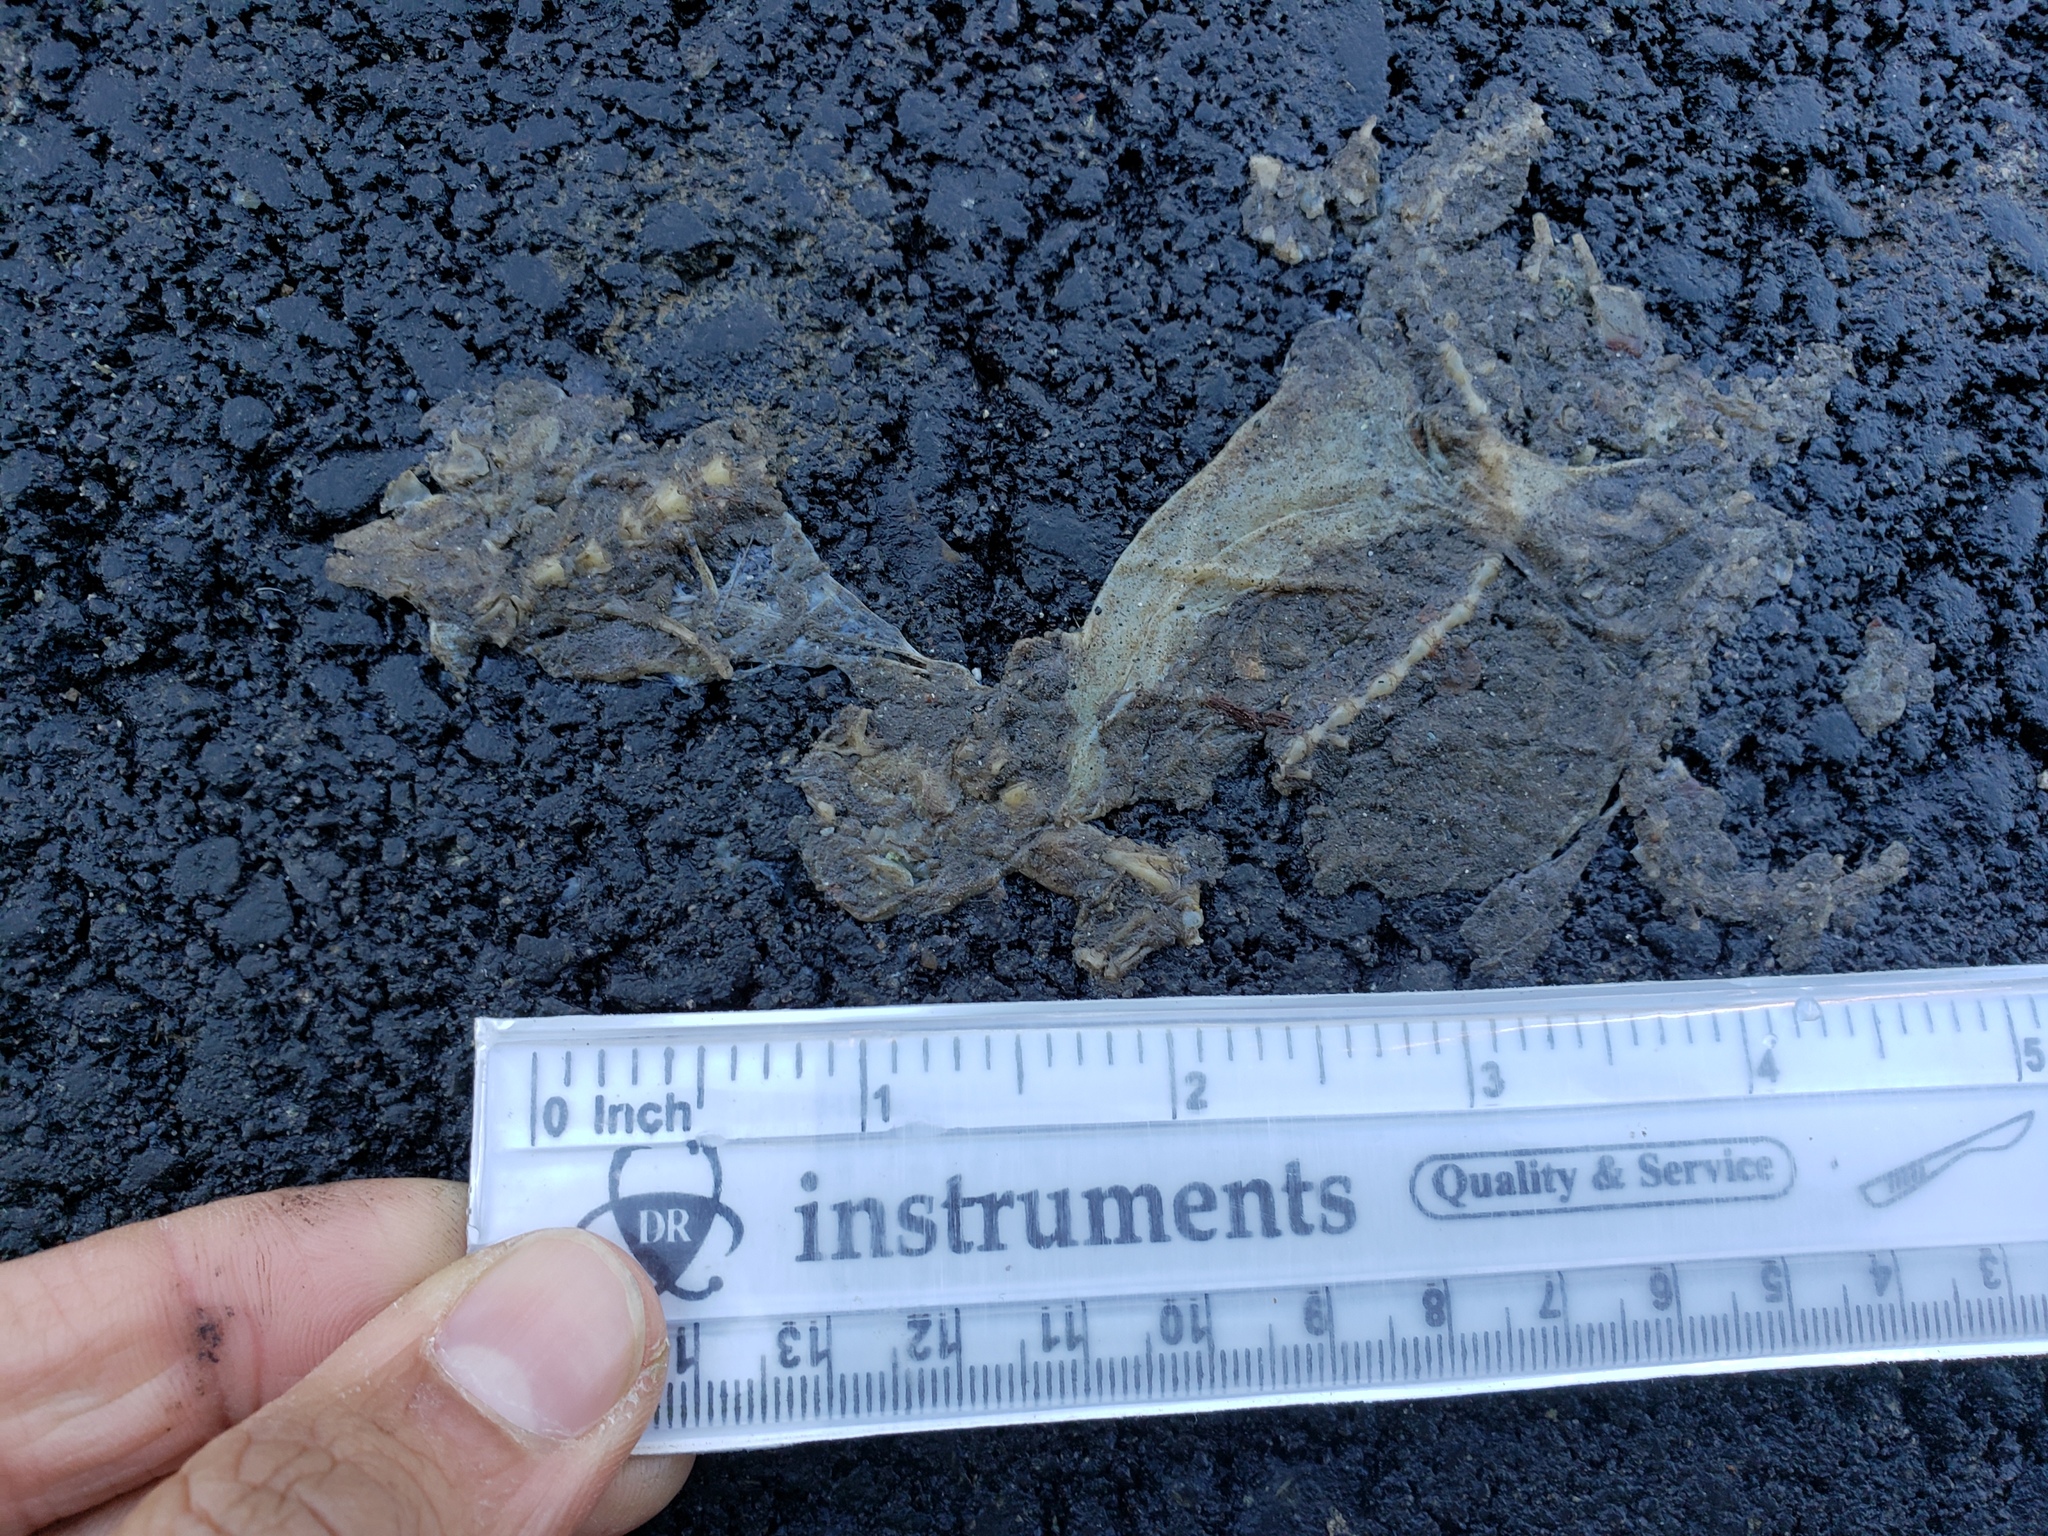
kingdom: Animalia
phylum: Chordata
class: Amphibia
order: Caudata
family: Salamandridae
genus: Taricha
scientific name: Taricha
